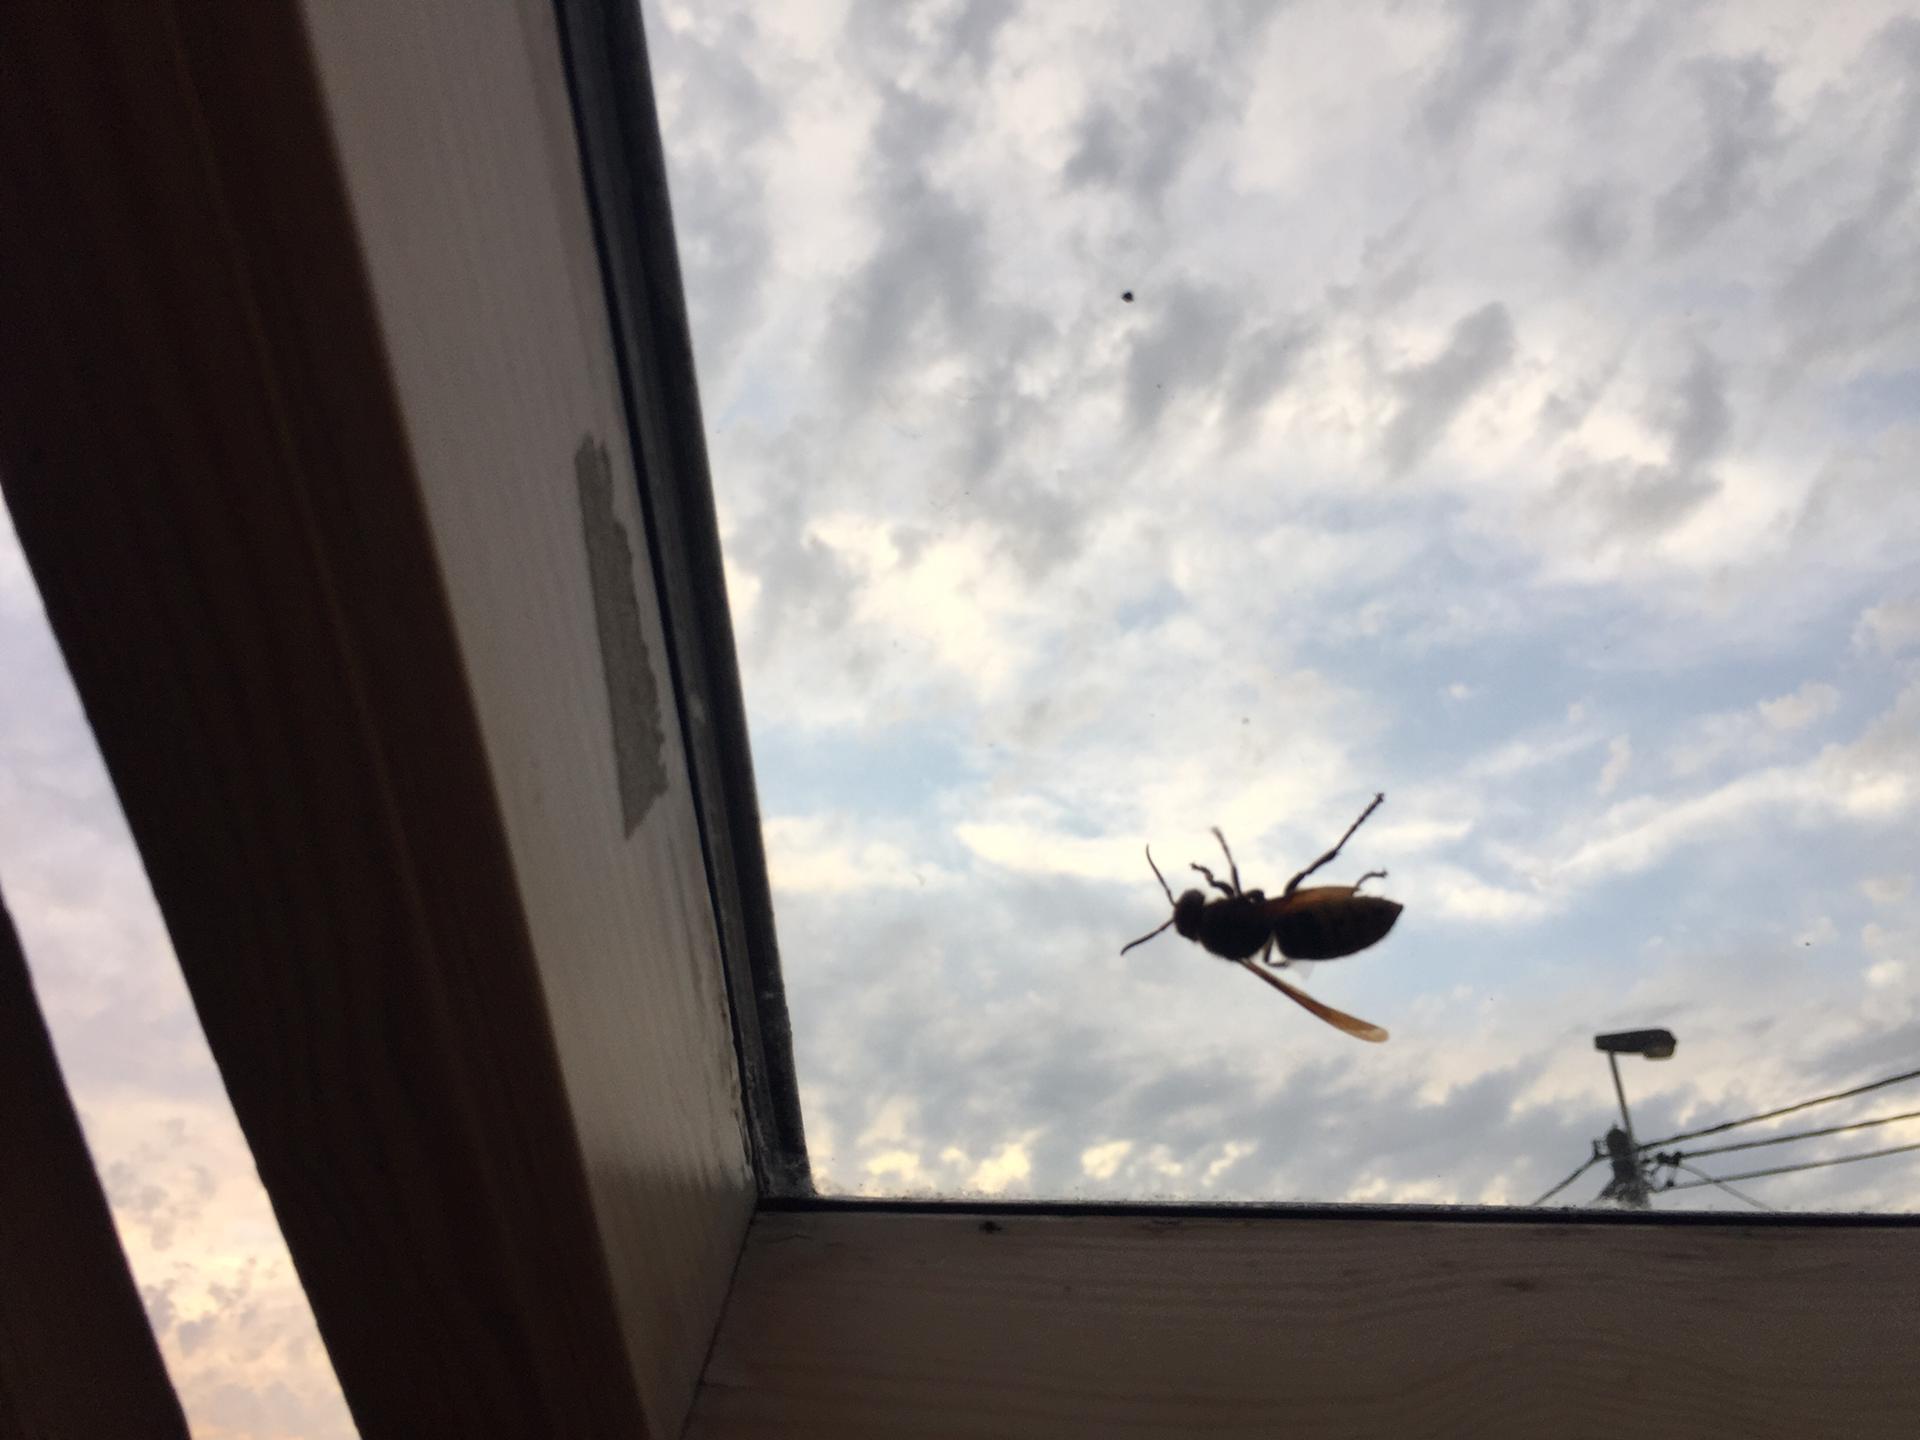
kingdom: Animalia
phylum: Arthropoda
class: Insecta
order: Hymenoptera
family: Vespidae
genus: Vespa
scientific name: Vespa crabro
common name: Hornet
